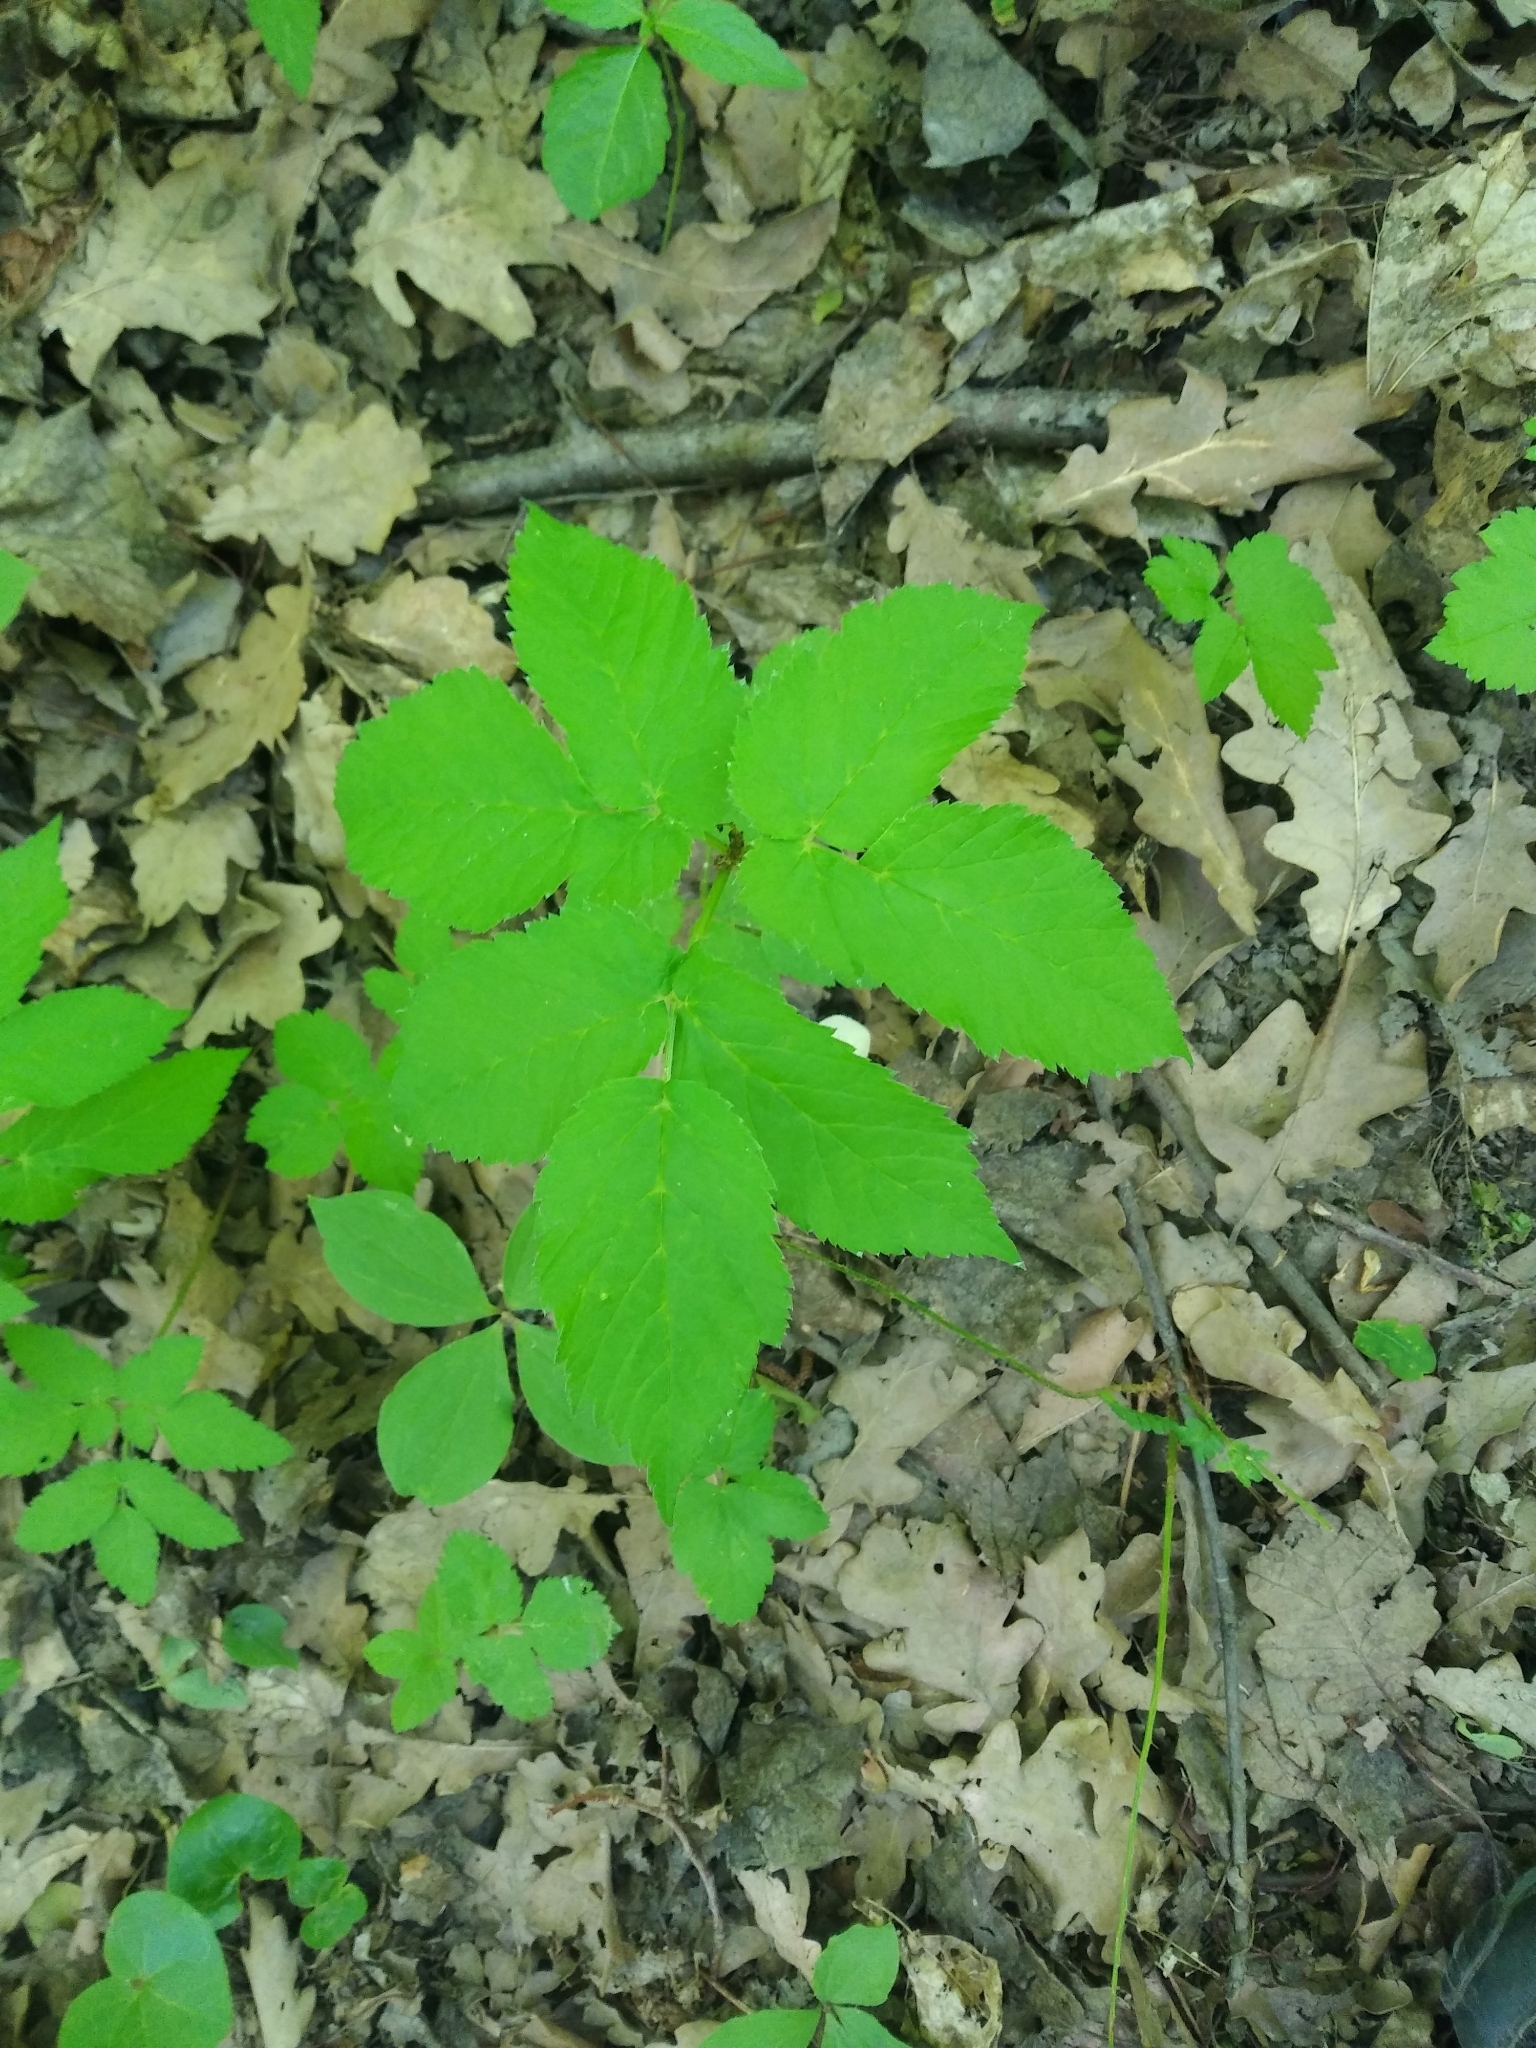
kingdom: Plantae
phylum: Tracheophyta
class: Magnoliopsida
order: Apiales
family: Apiaceae
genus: Aegopodium
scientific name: Aegopodium podagraria
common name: Ground-elder
